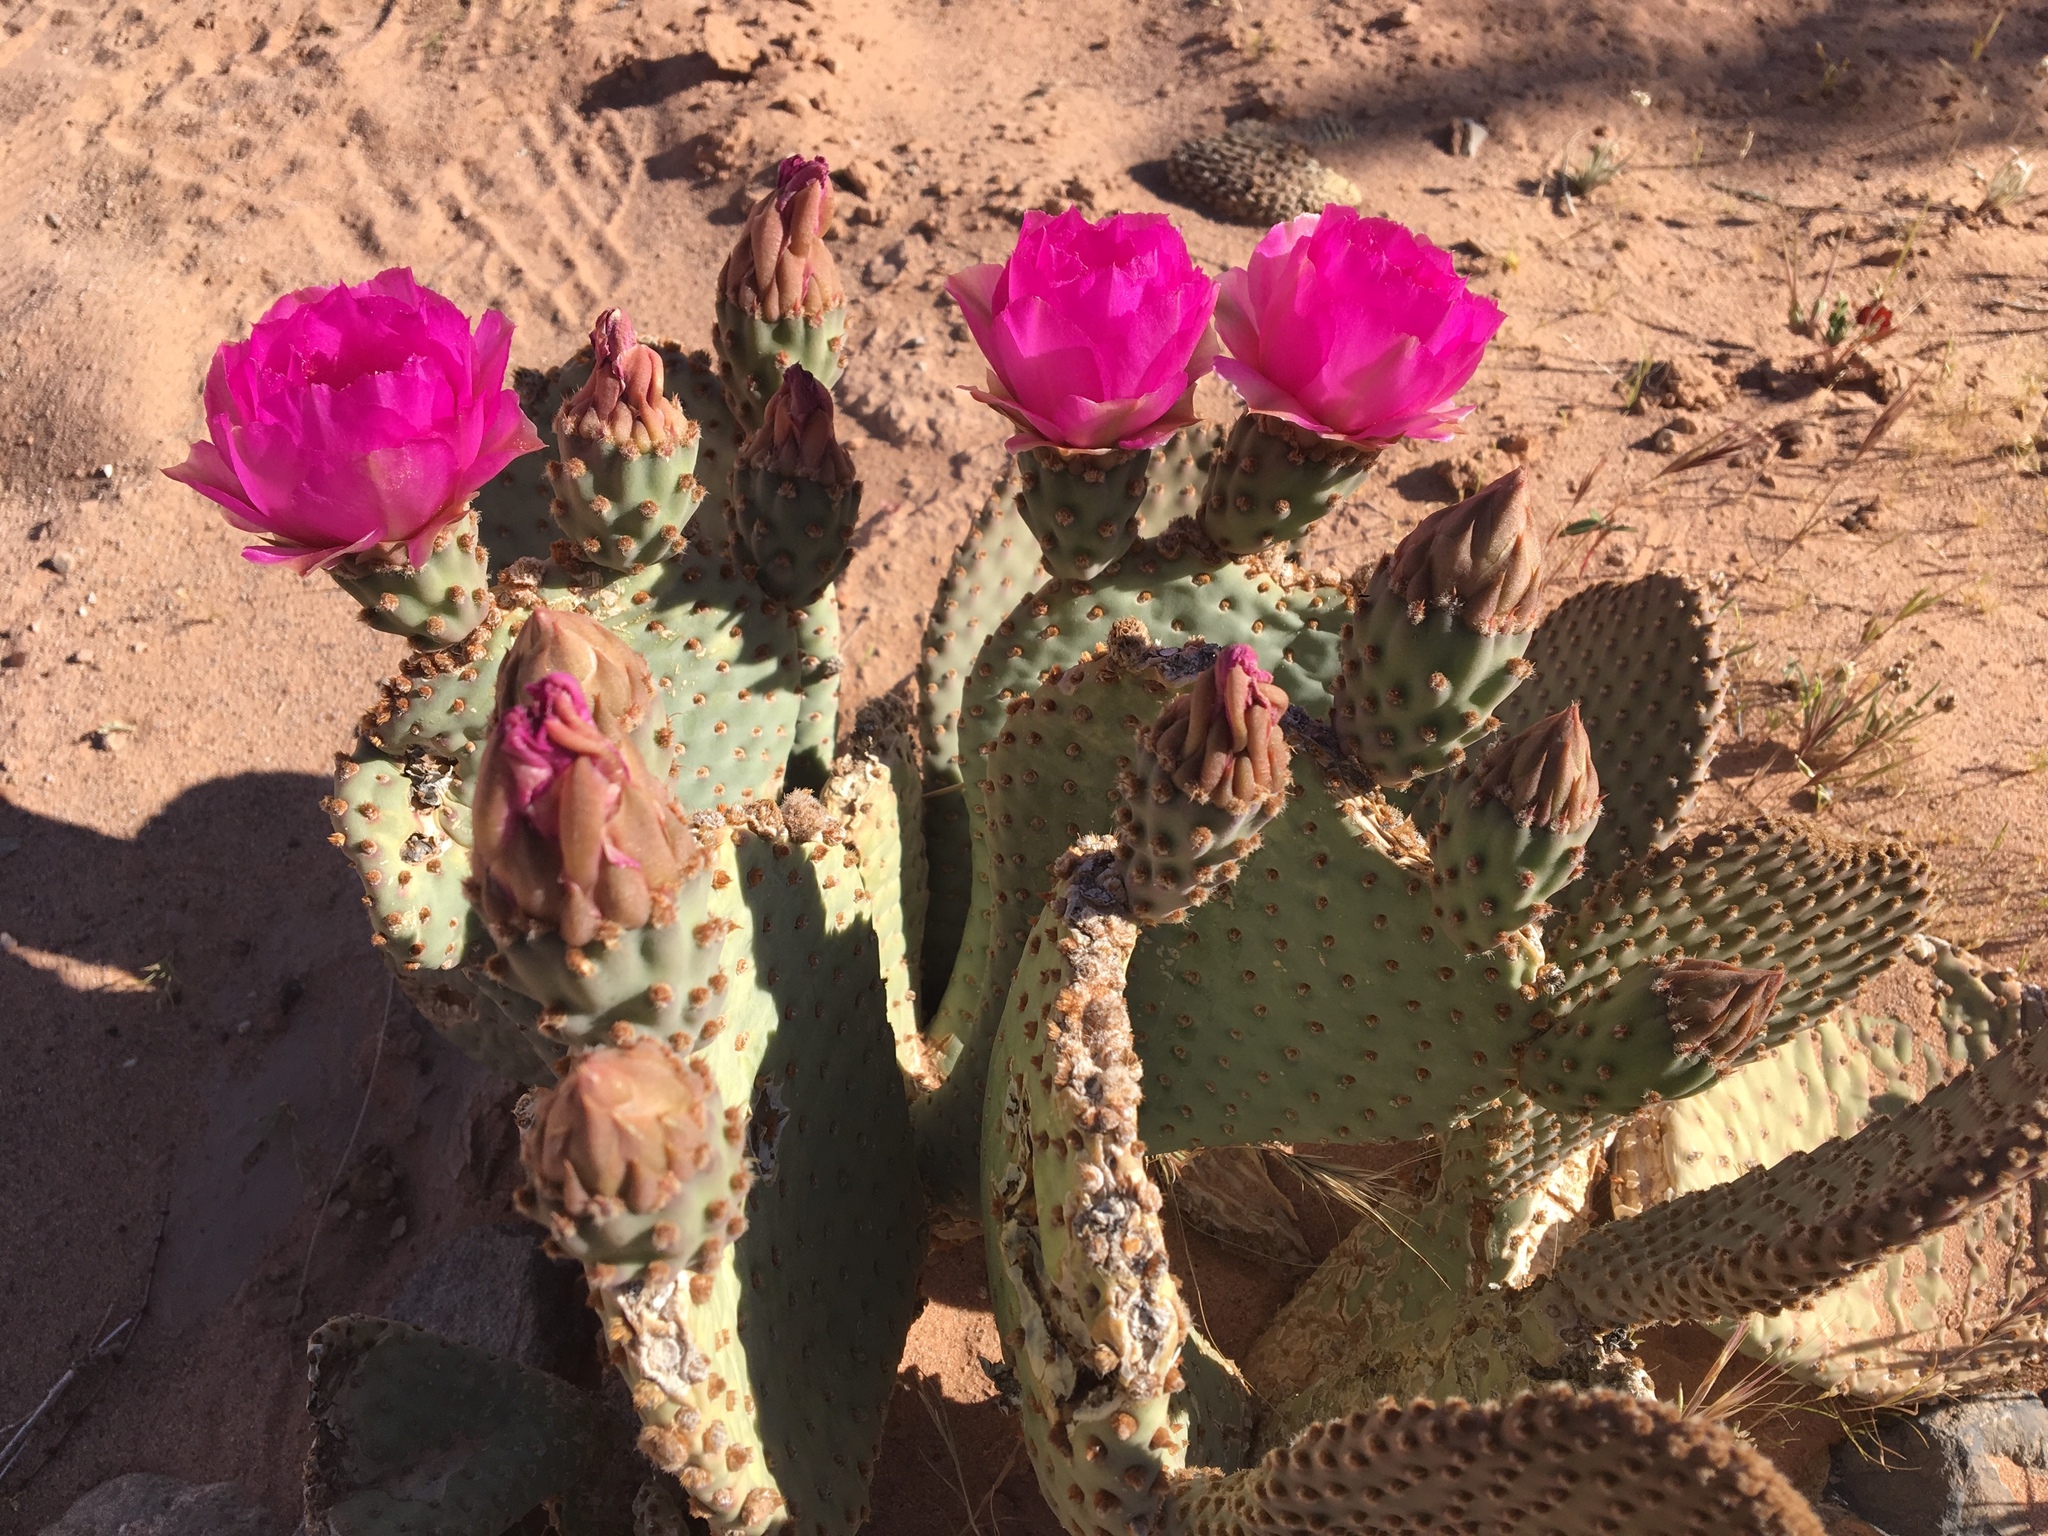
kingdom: Plantae
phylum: Tracheophyta
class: Magnoliopsida
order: Caryophyllales
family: Cactaceae
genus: Opuntia
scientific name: Opuntia basilaris
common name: Beavertail prickly-pear
